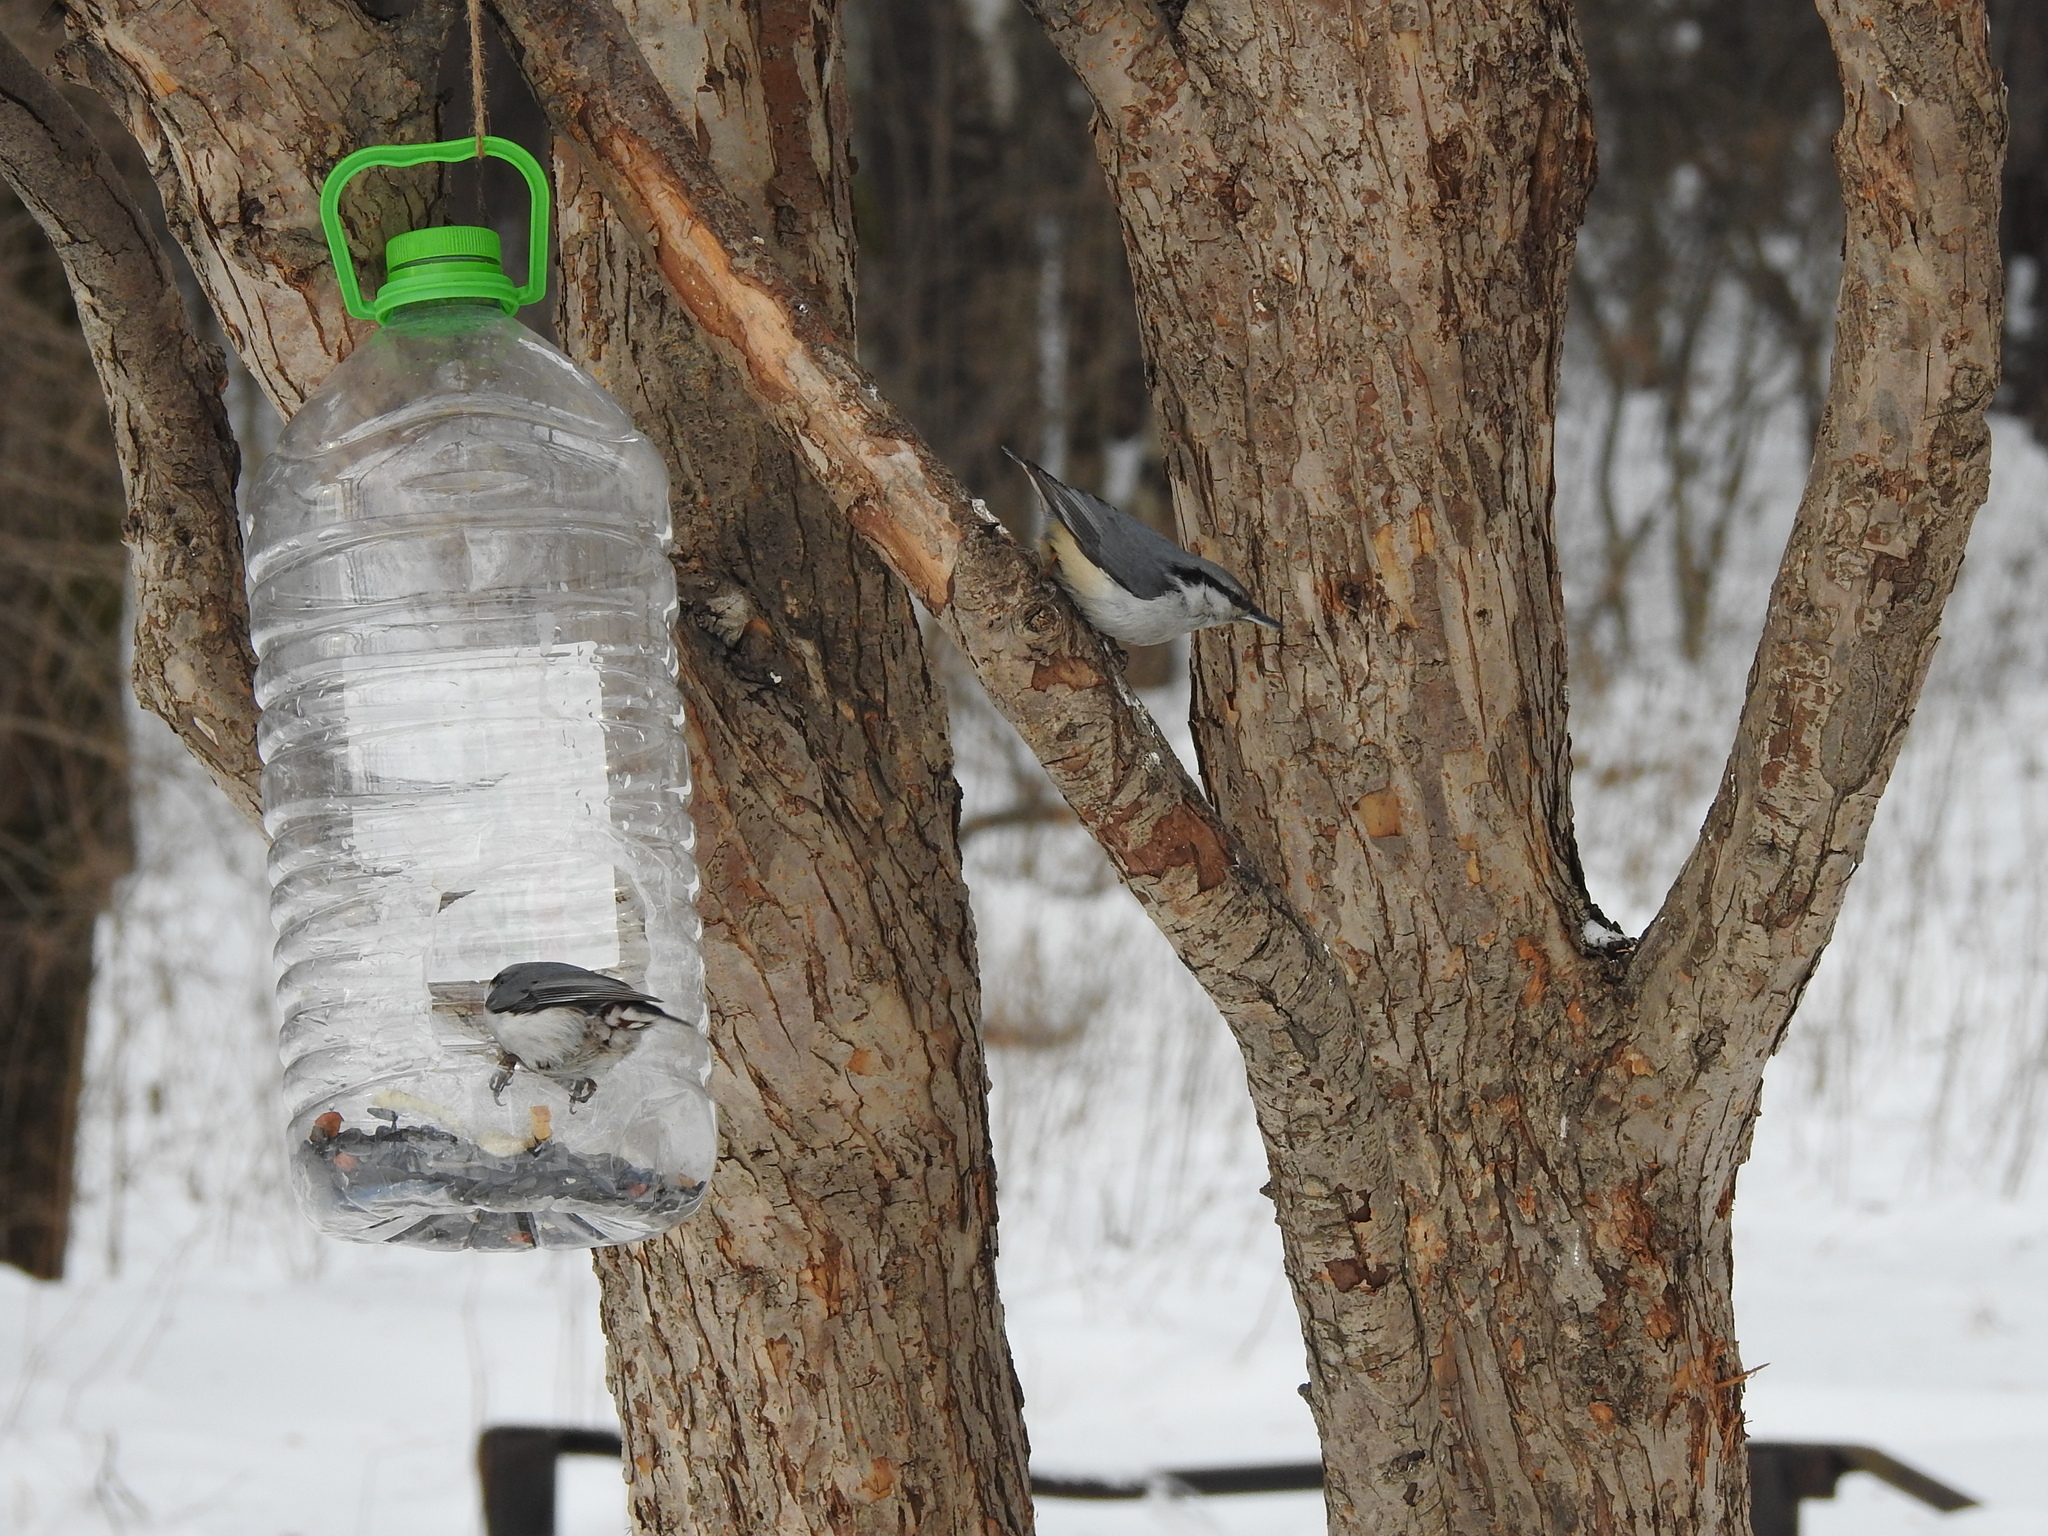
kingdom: Animalia
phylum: Chordata
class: Aves
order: Passeriformes
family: Sittidae
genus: Sitta
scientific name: Sitta europaea
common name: Eurasian nuthatch
